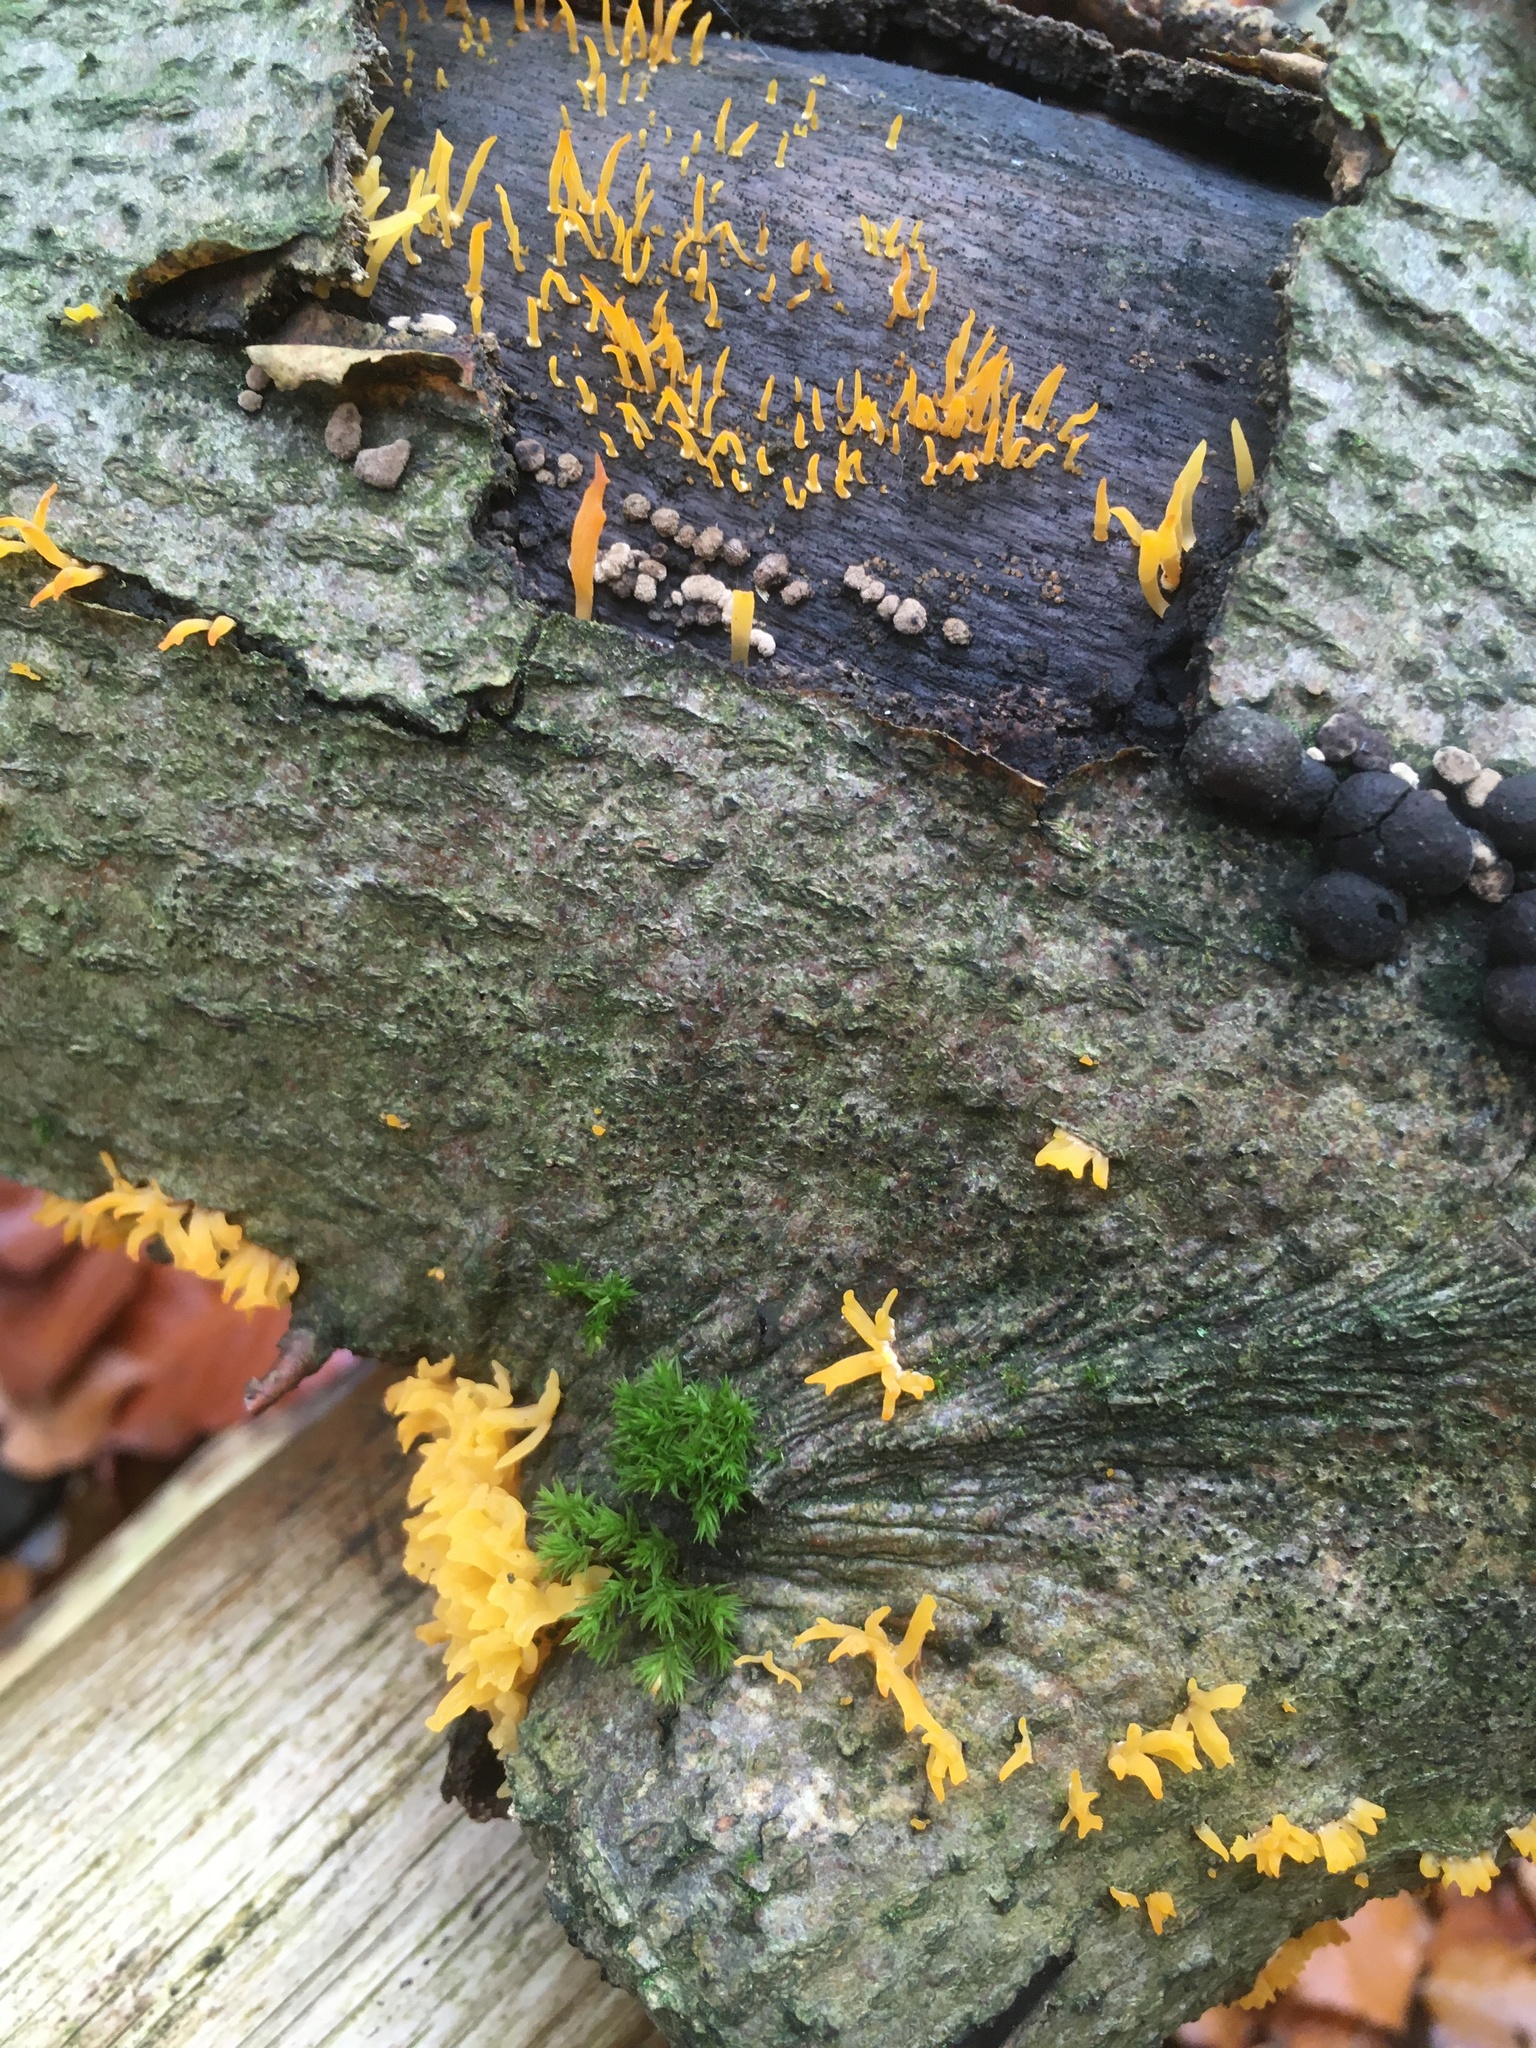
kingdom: Fungi
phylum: Basidiomycota
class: Dacrymycetes
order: Dacrymycetales
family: Dacrymycetaceae
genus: Calocera
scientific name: Calocera cornea
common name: Small stagshorn
